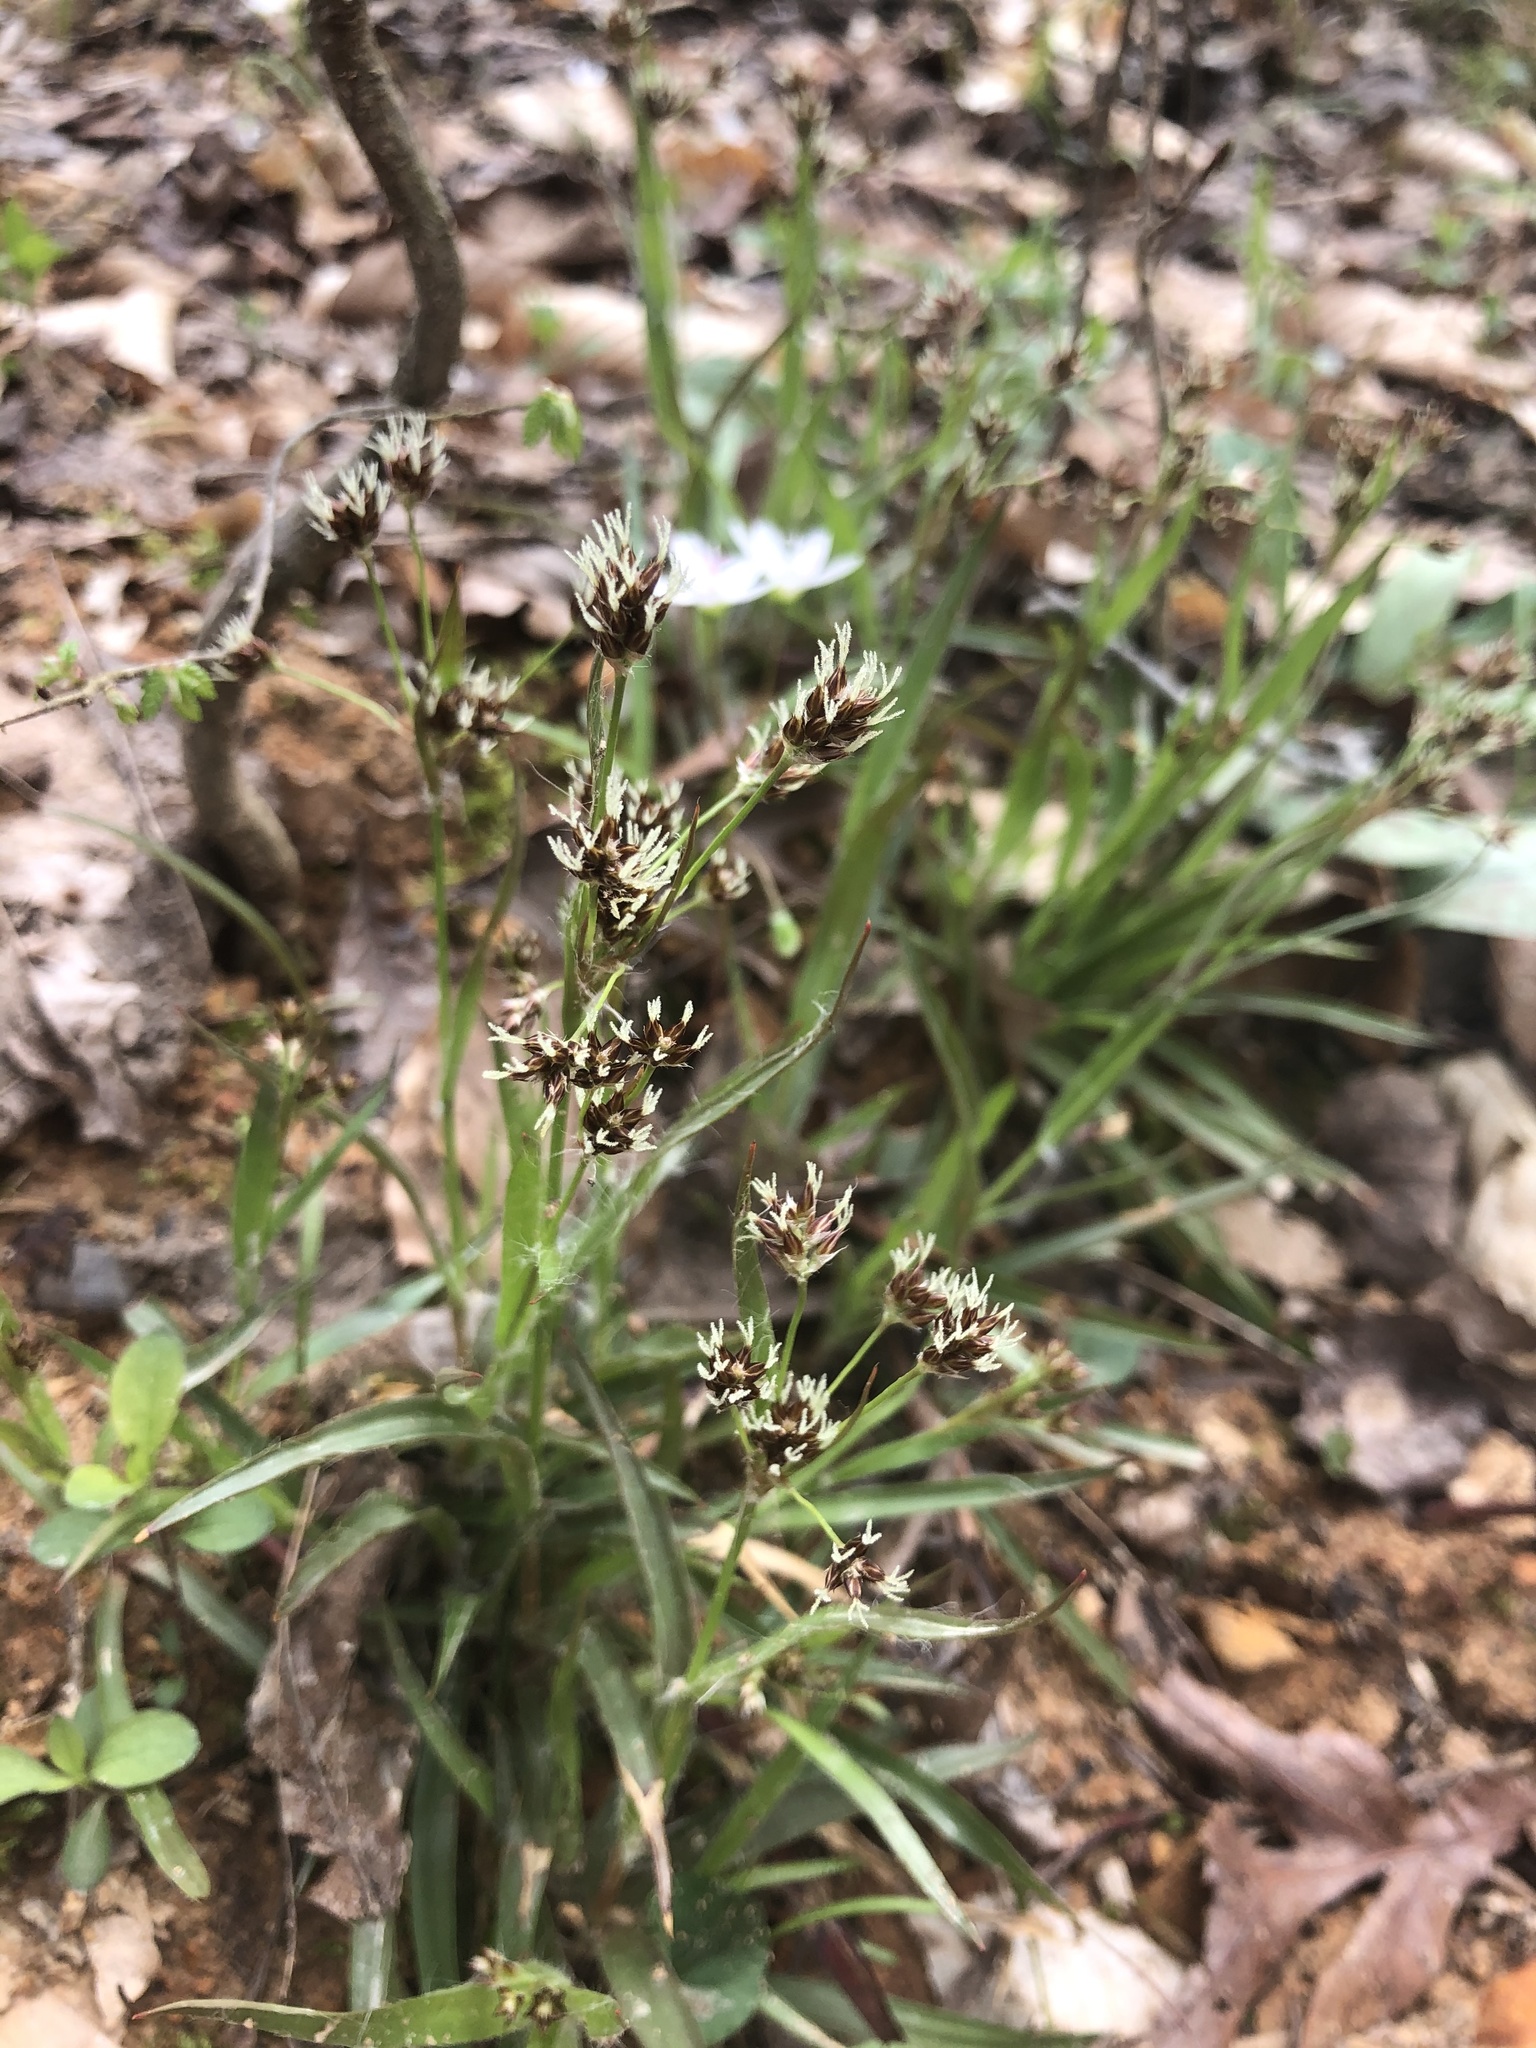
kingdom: Plantae
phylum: Tracheophyta
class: Liliopsida
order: Poales
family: Juncaceae
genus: Luzula
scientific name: Luzula echinata
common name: Hedgehog woodrush
